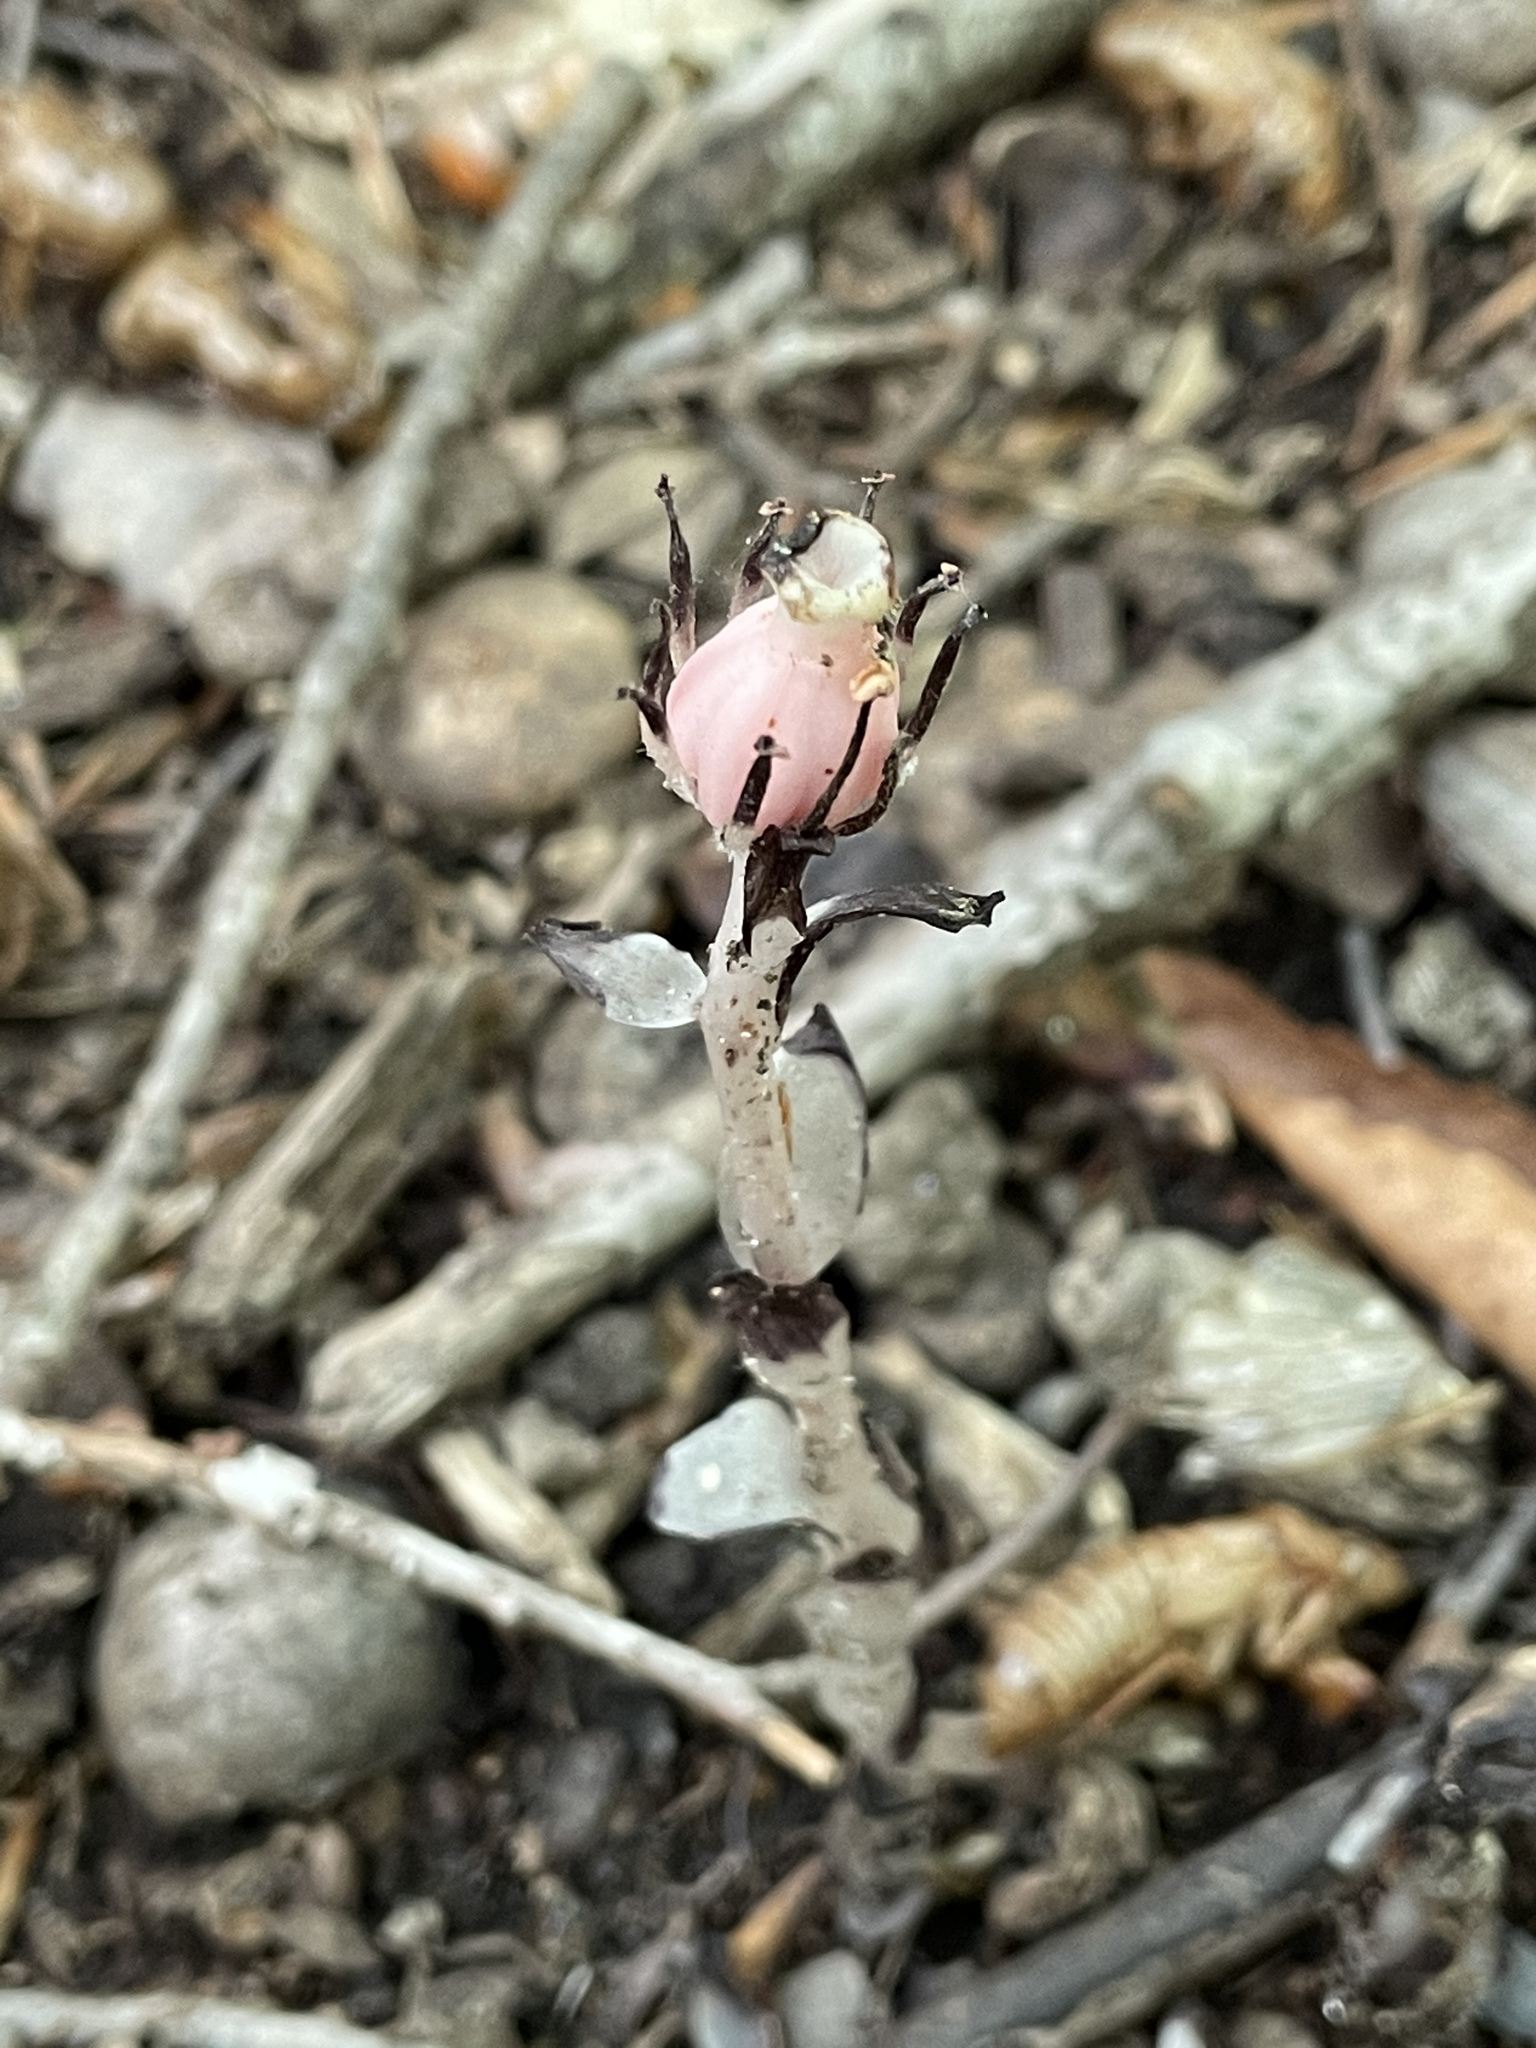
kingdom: Plantae
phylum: Tracheophyta
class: Magnoliopsida
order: Ericales
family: Ericaceae
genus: Monotropa
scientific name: Monotropa uniflora
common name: Convulsion root
